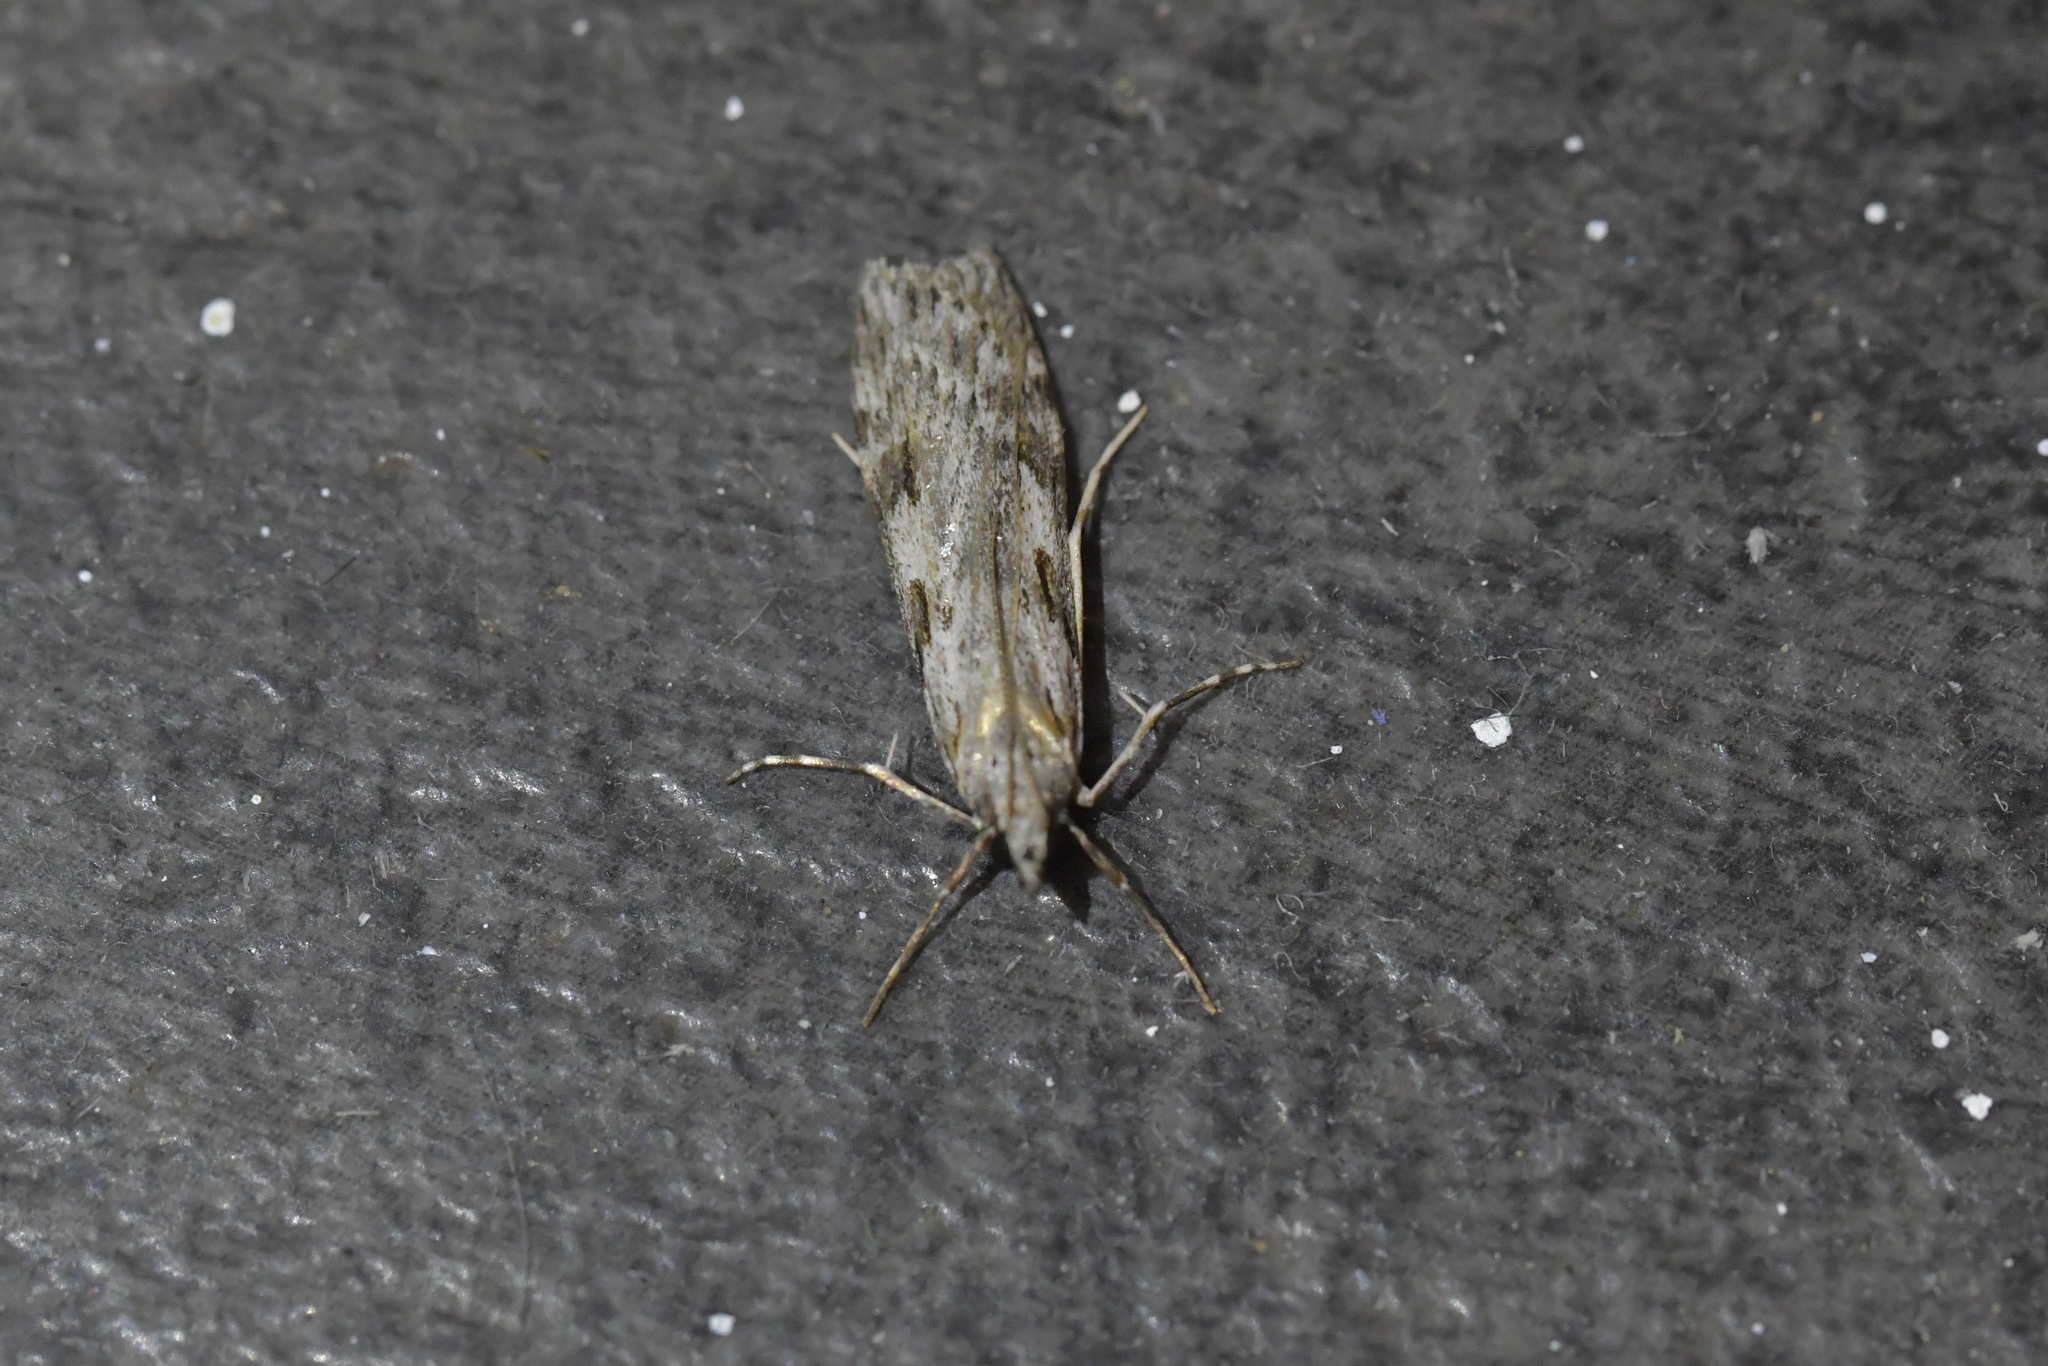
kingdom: Animalia
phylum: Arthropoda
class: Insecta
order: Lepidoptera
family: Crambidae
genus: Scoparia
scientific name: Scoparia halopis
